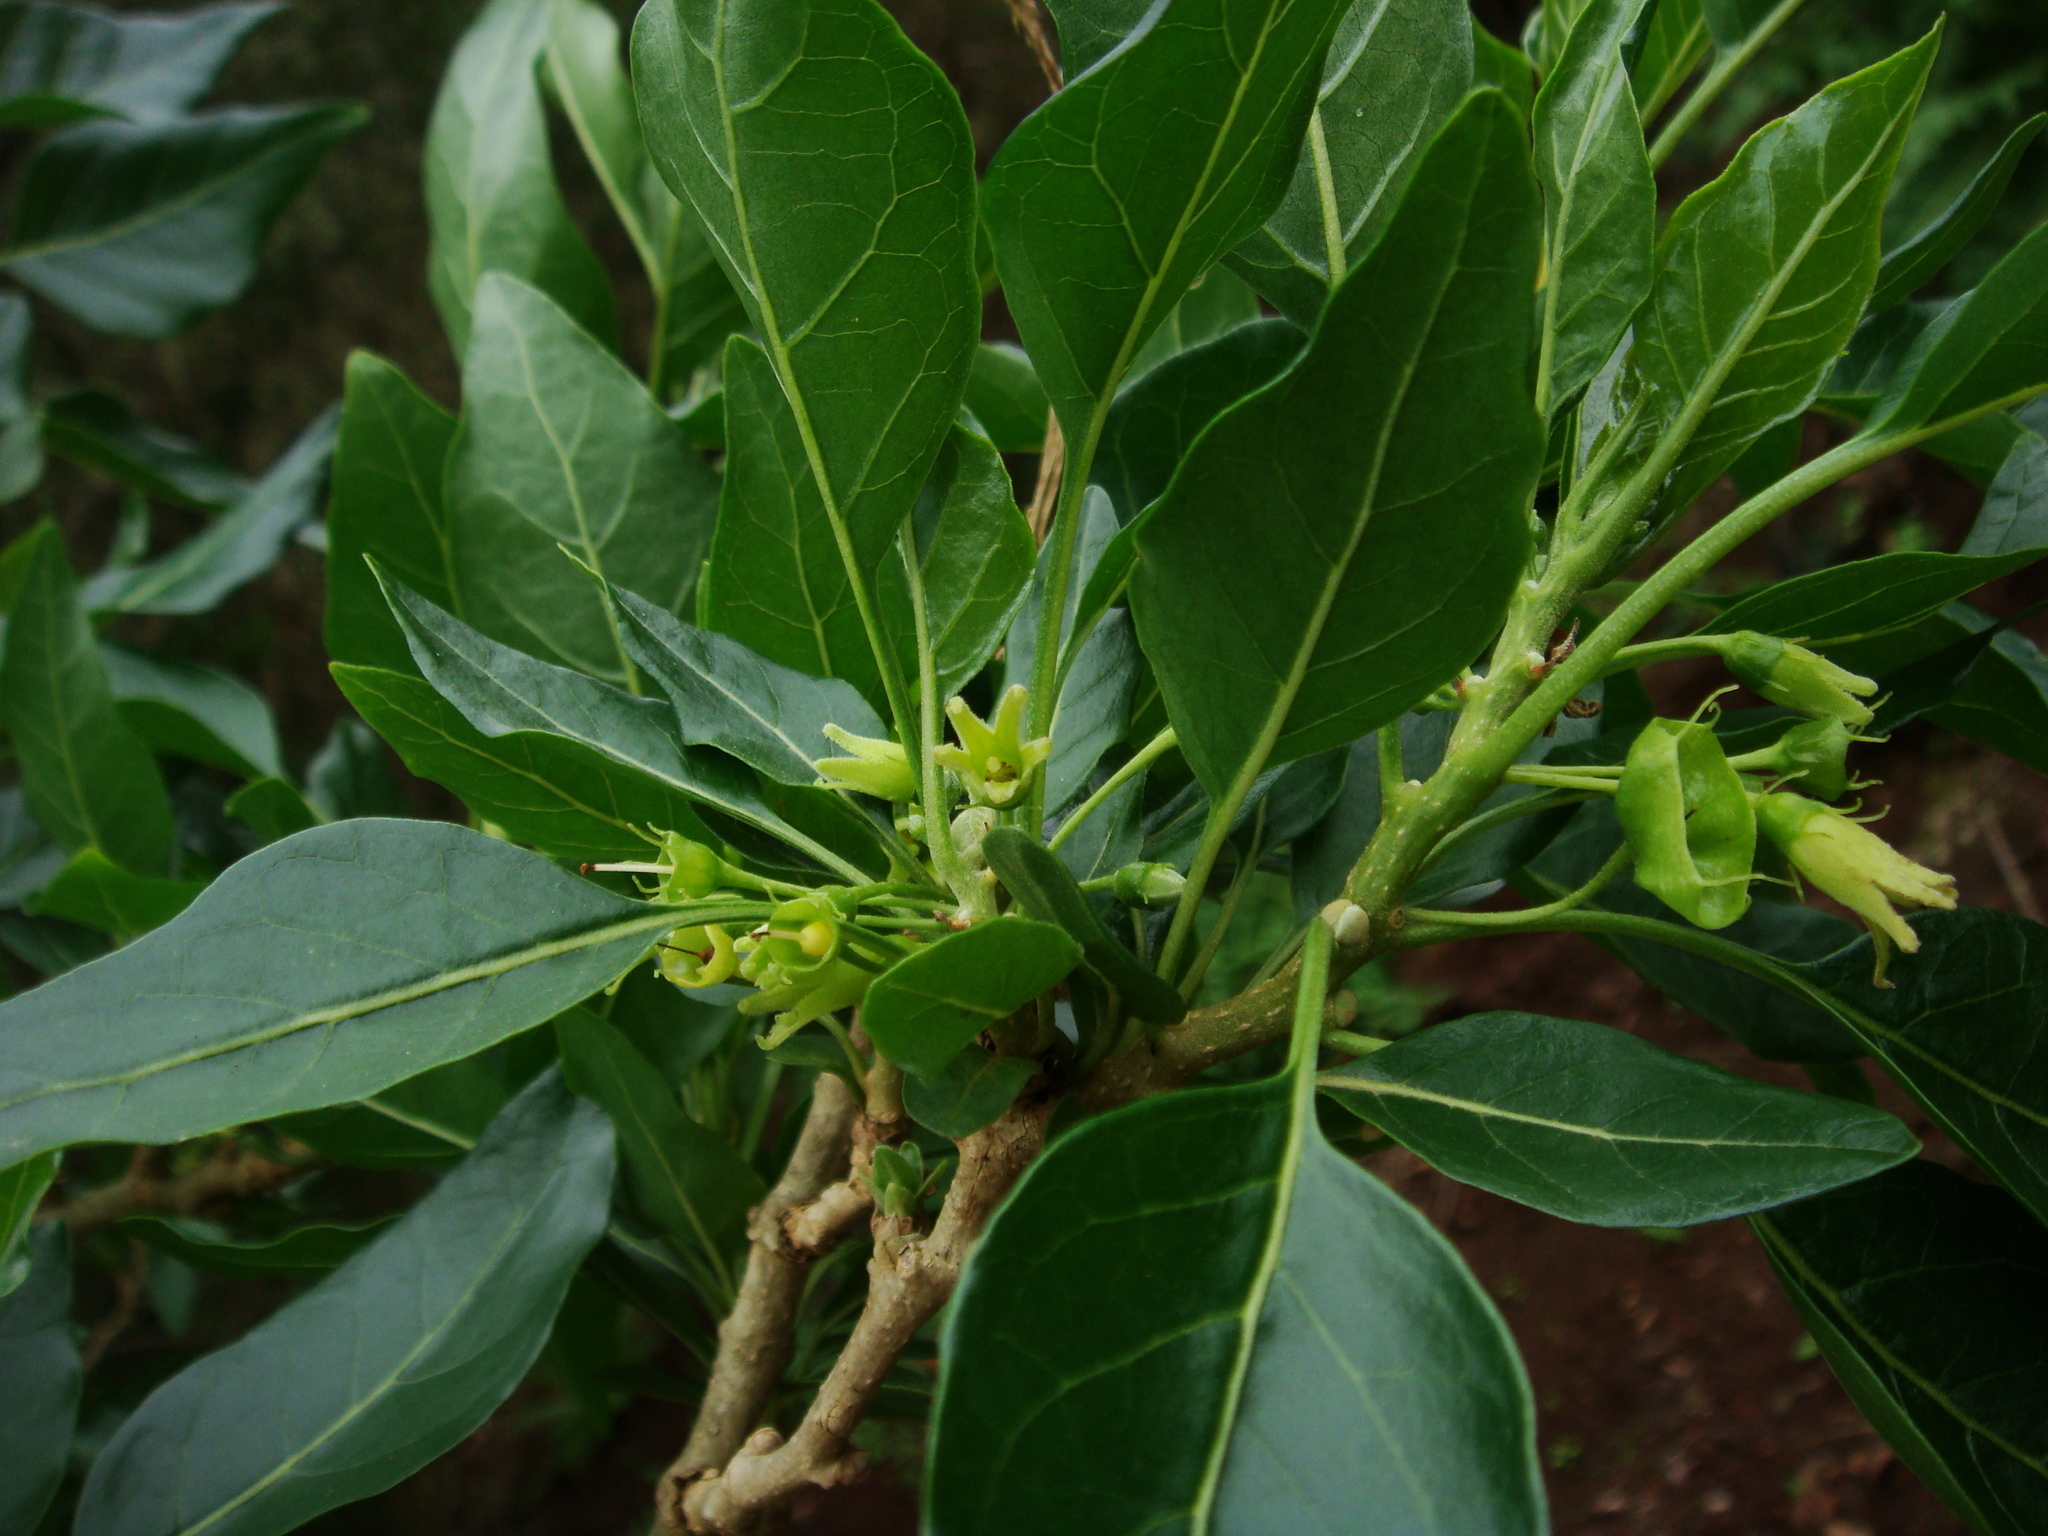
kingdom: Plantae
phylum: Tracheophyta
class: Magnoliopsida
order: Solanales
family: Solanaceae
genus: Withania
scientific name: Withania aristata
